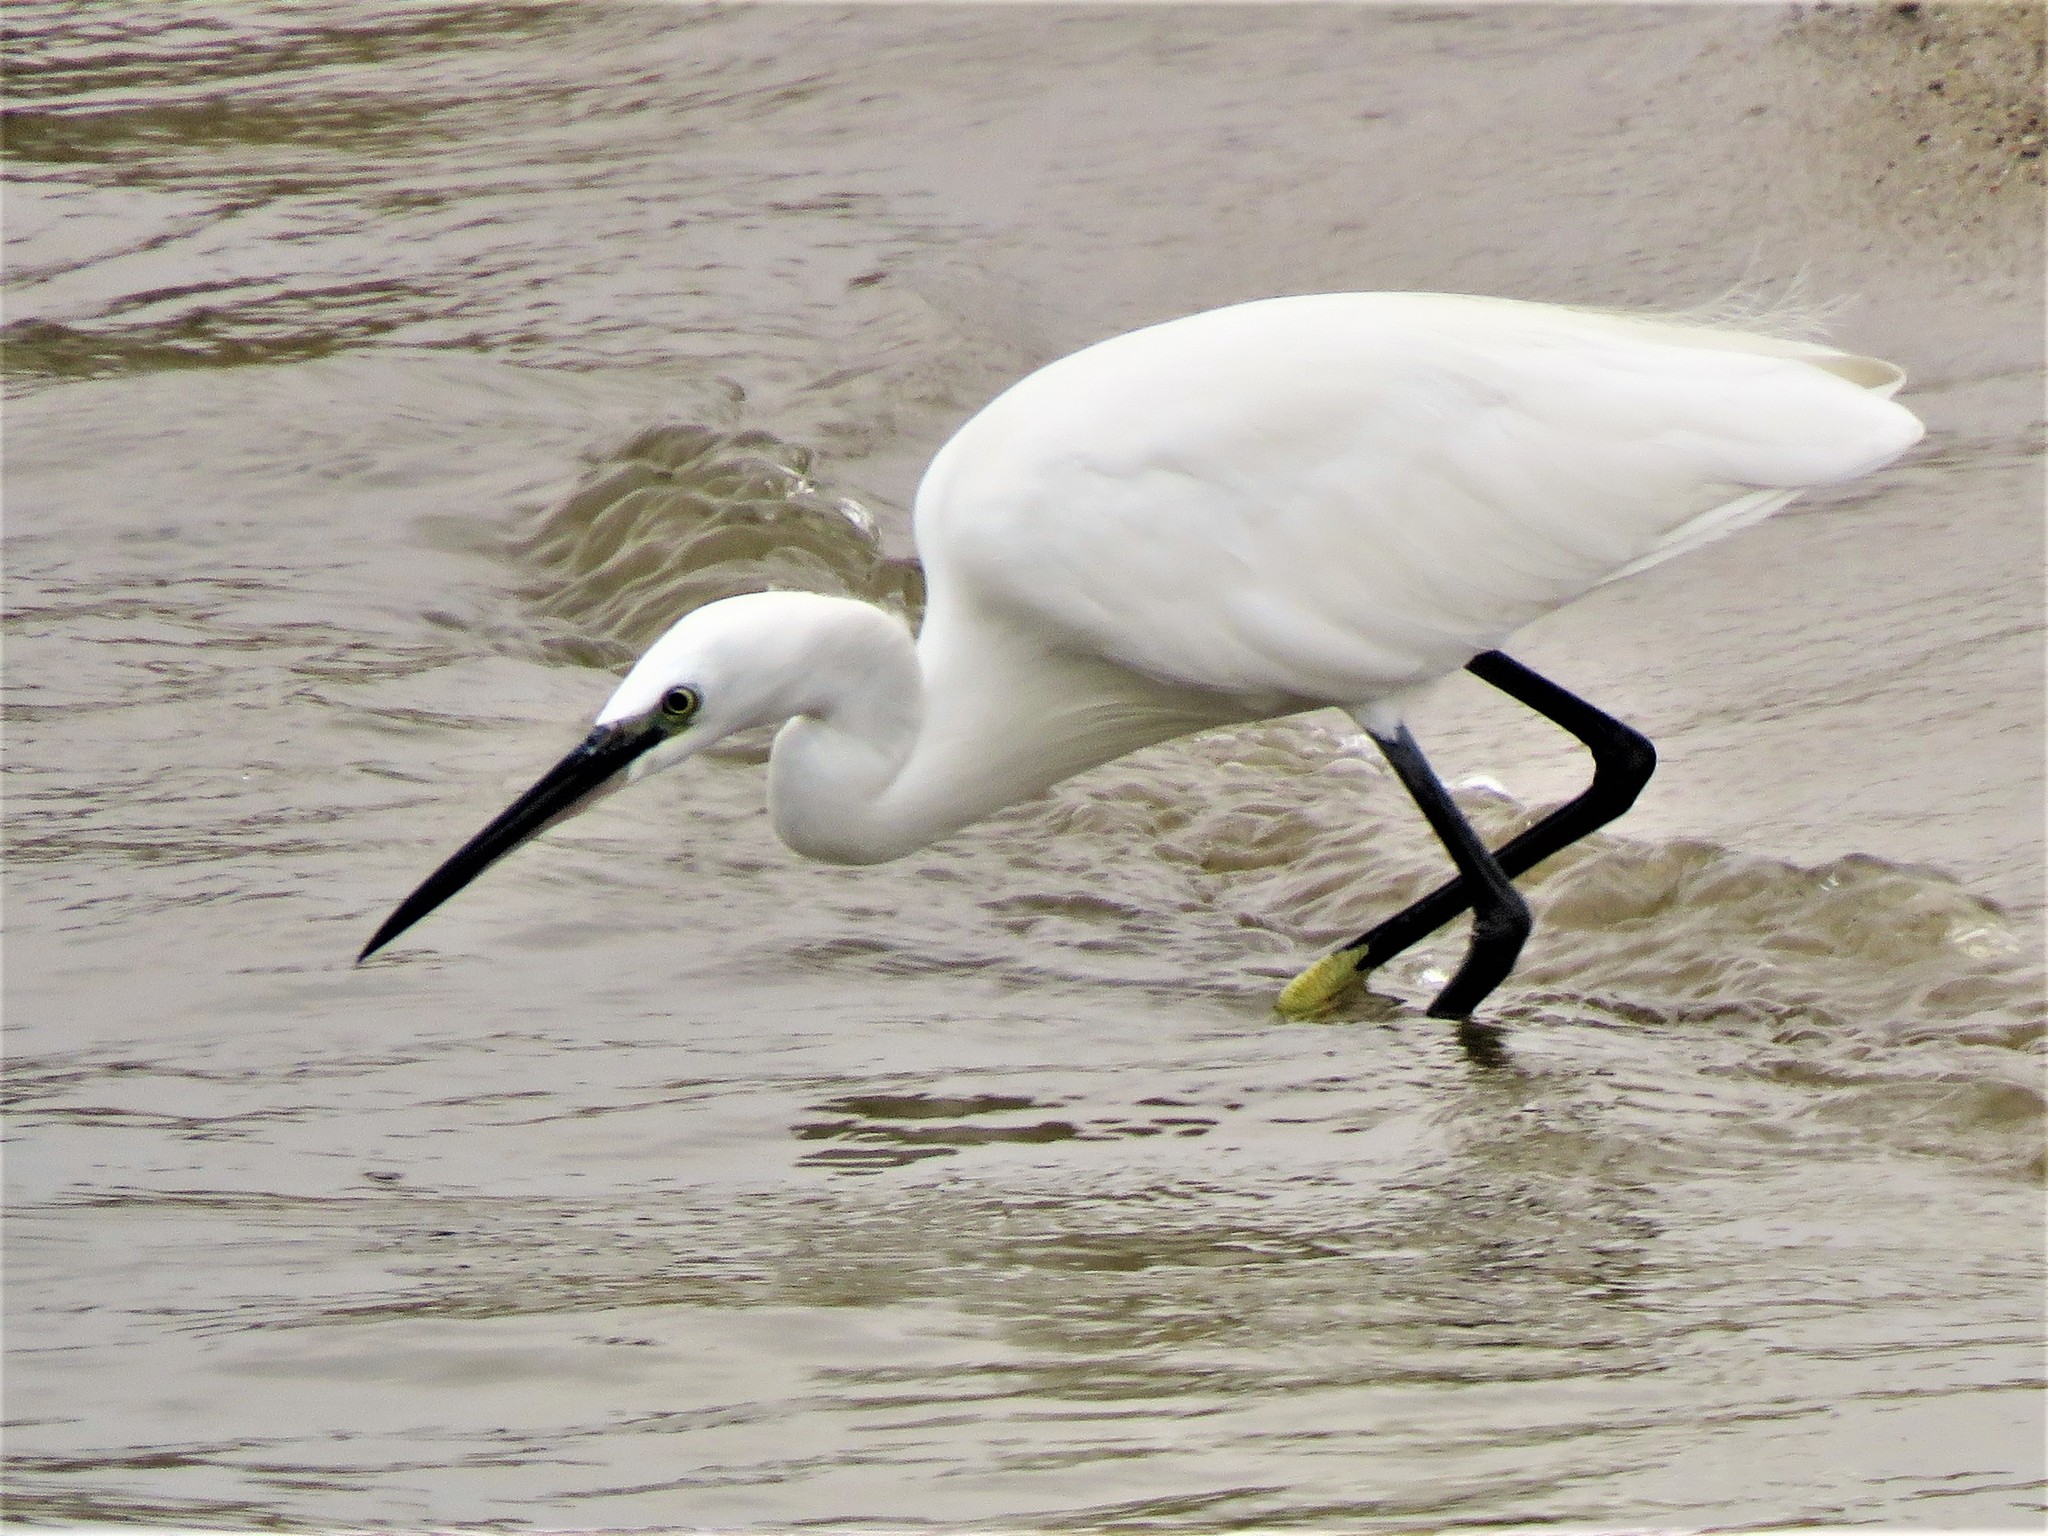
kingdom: Animalia
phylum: Chordata
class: Aves
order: Pelecaniformes
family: Ardeidae
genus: Egretta
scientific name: Egretta garzetta
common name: Little egret
